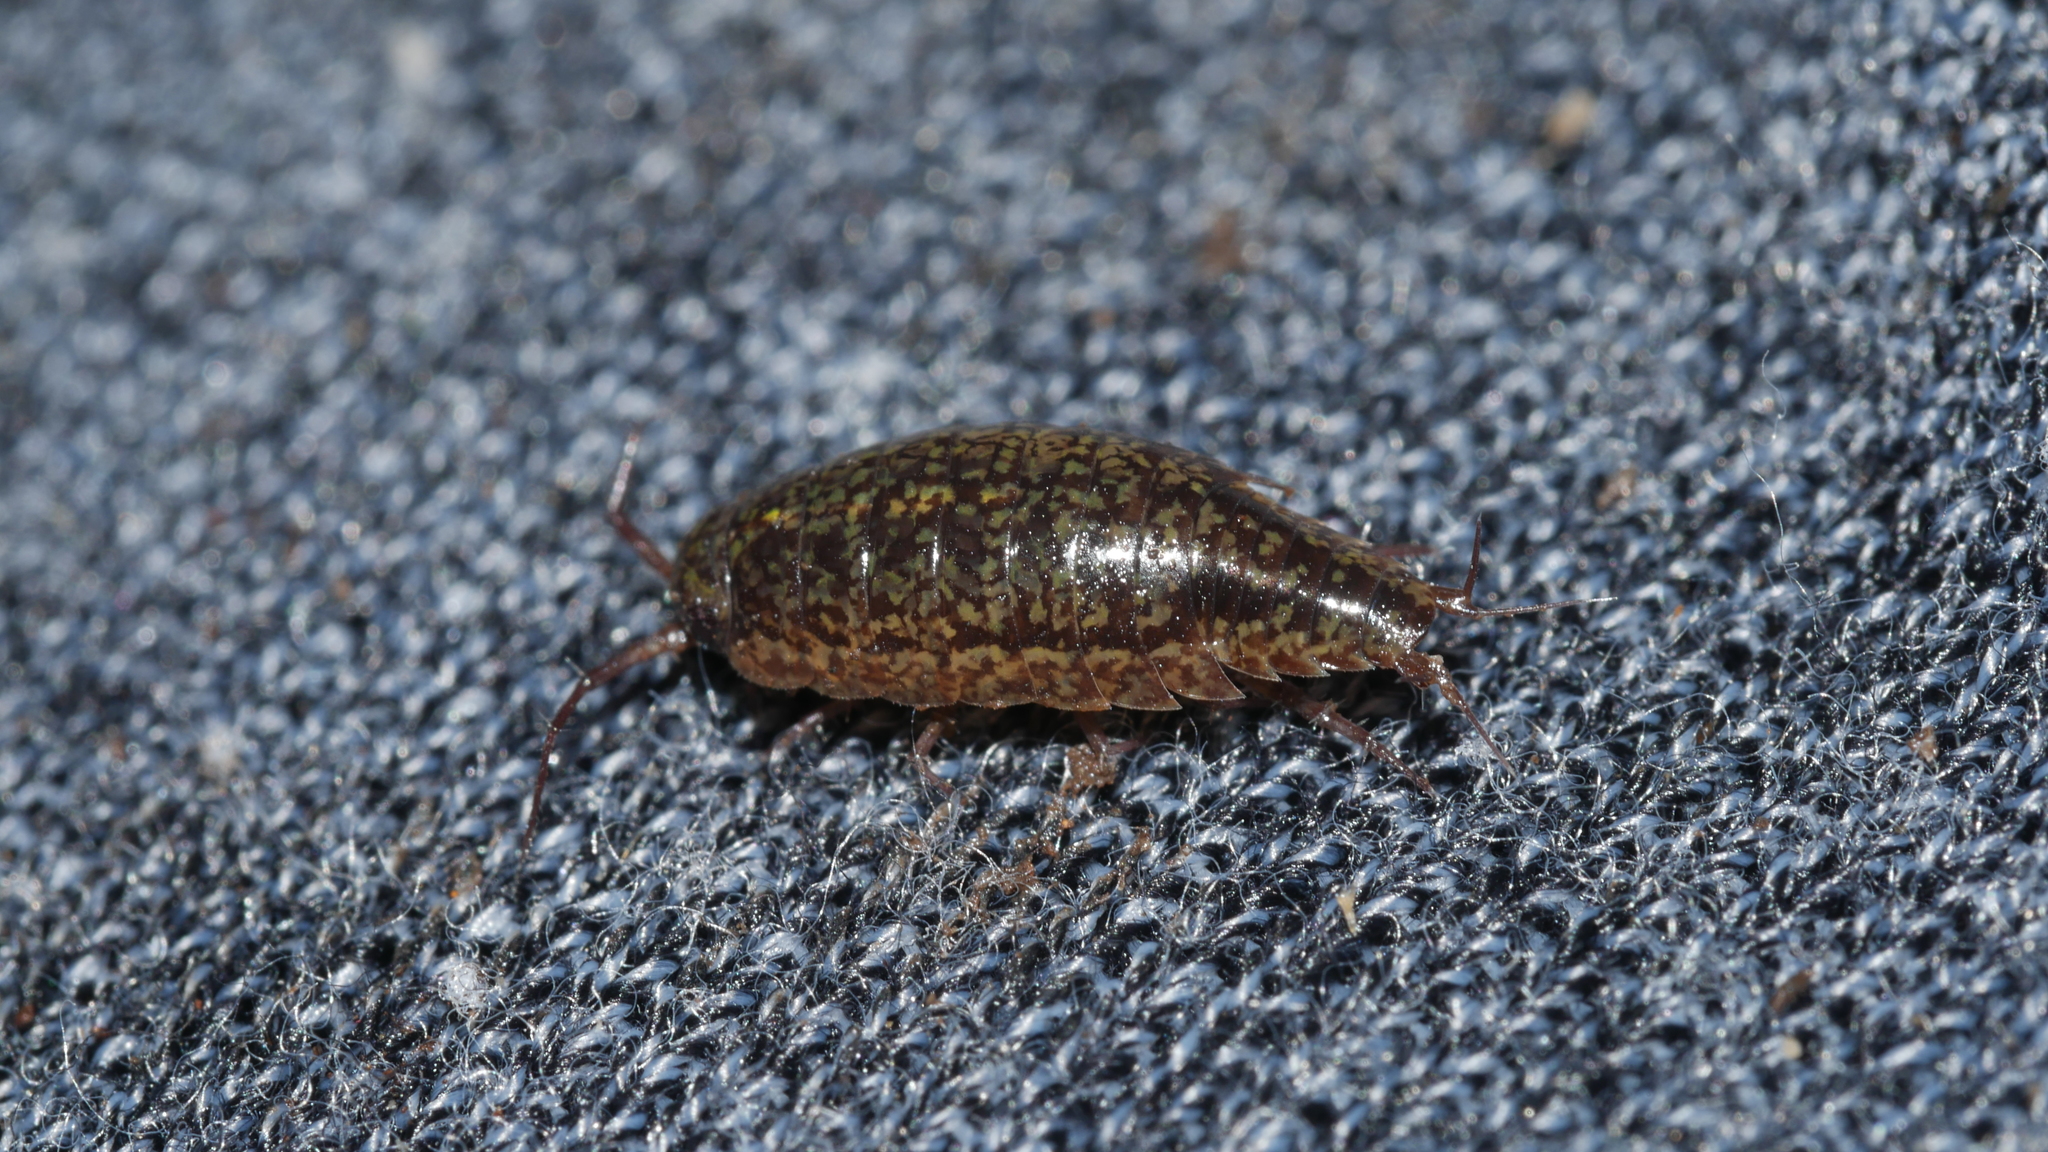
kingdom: Animalia
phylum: Arthropoda
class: Malacostraca
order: Isopoda
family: Ligiidae
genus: Ligidium
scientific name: Ligidium elrodii
